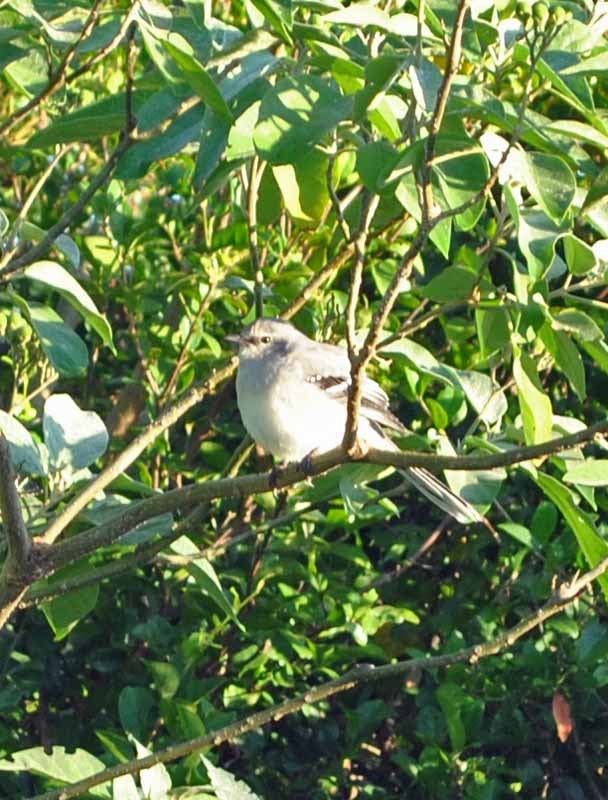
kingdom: Animalia
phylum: Chordata
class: Aves
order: Passeriformes
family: Mimidae
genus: Mimus
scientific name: Mimus gilvus
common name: Tropical mockingbird
